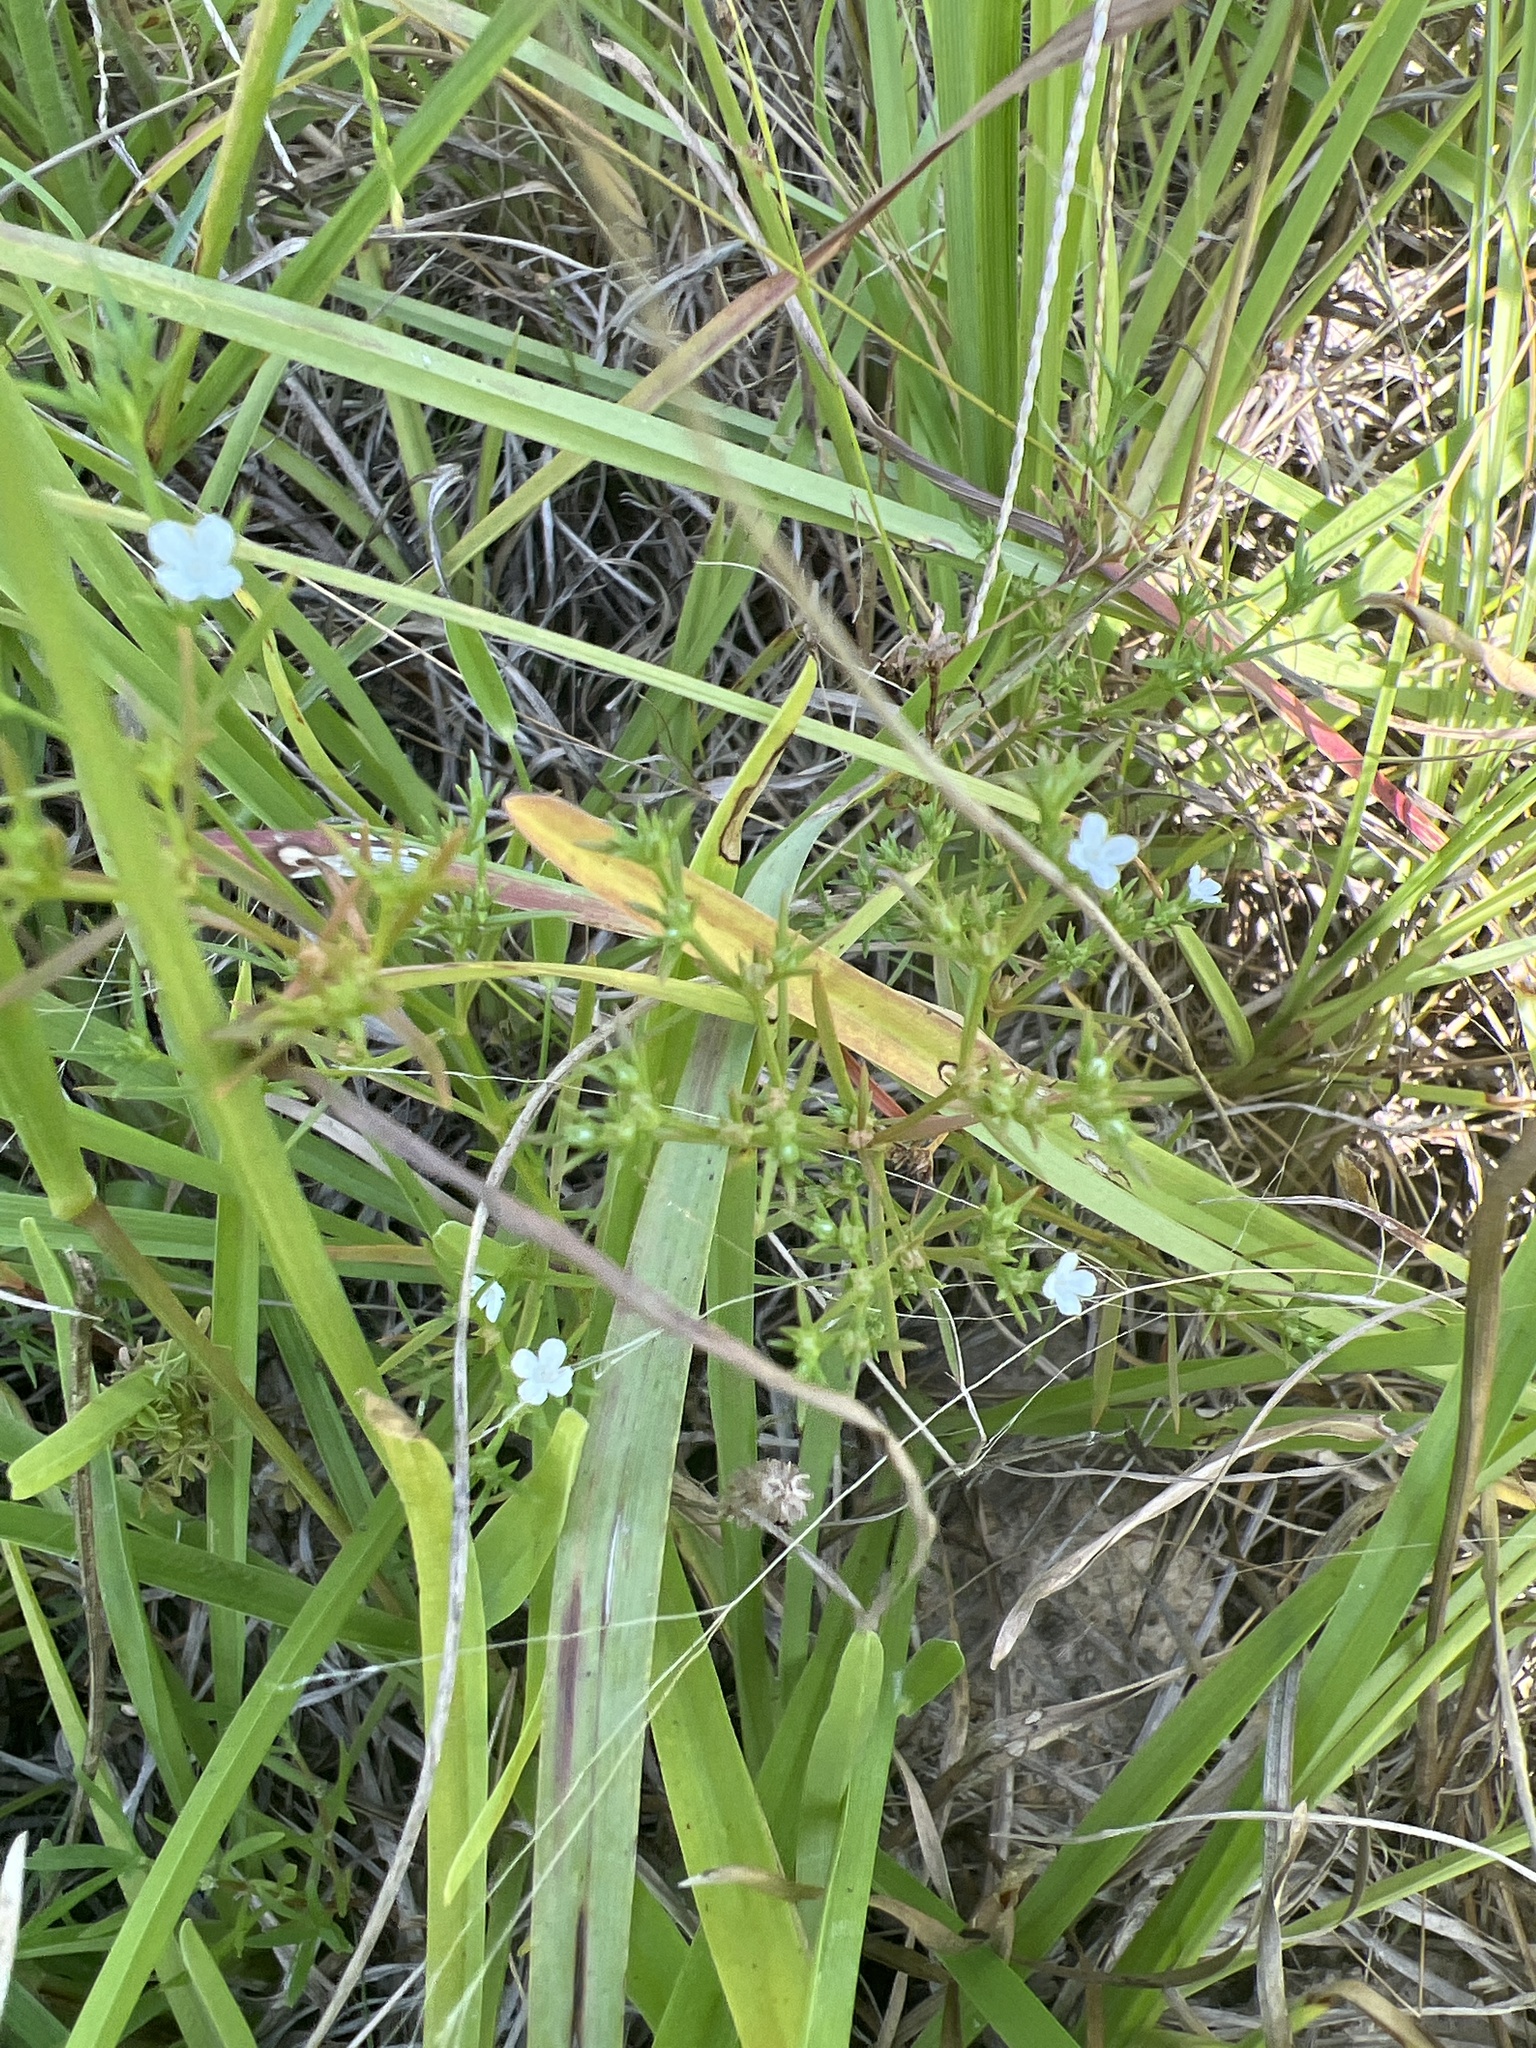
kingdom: Plantae
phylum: Tracheophyta
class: Magnoliopsida
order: Lamiales
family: Tetrachondraceae
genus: Polypremum
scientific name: Polypremum procumbens
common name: Juniper-leaf
